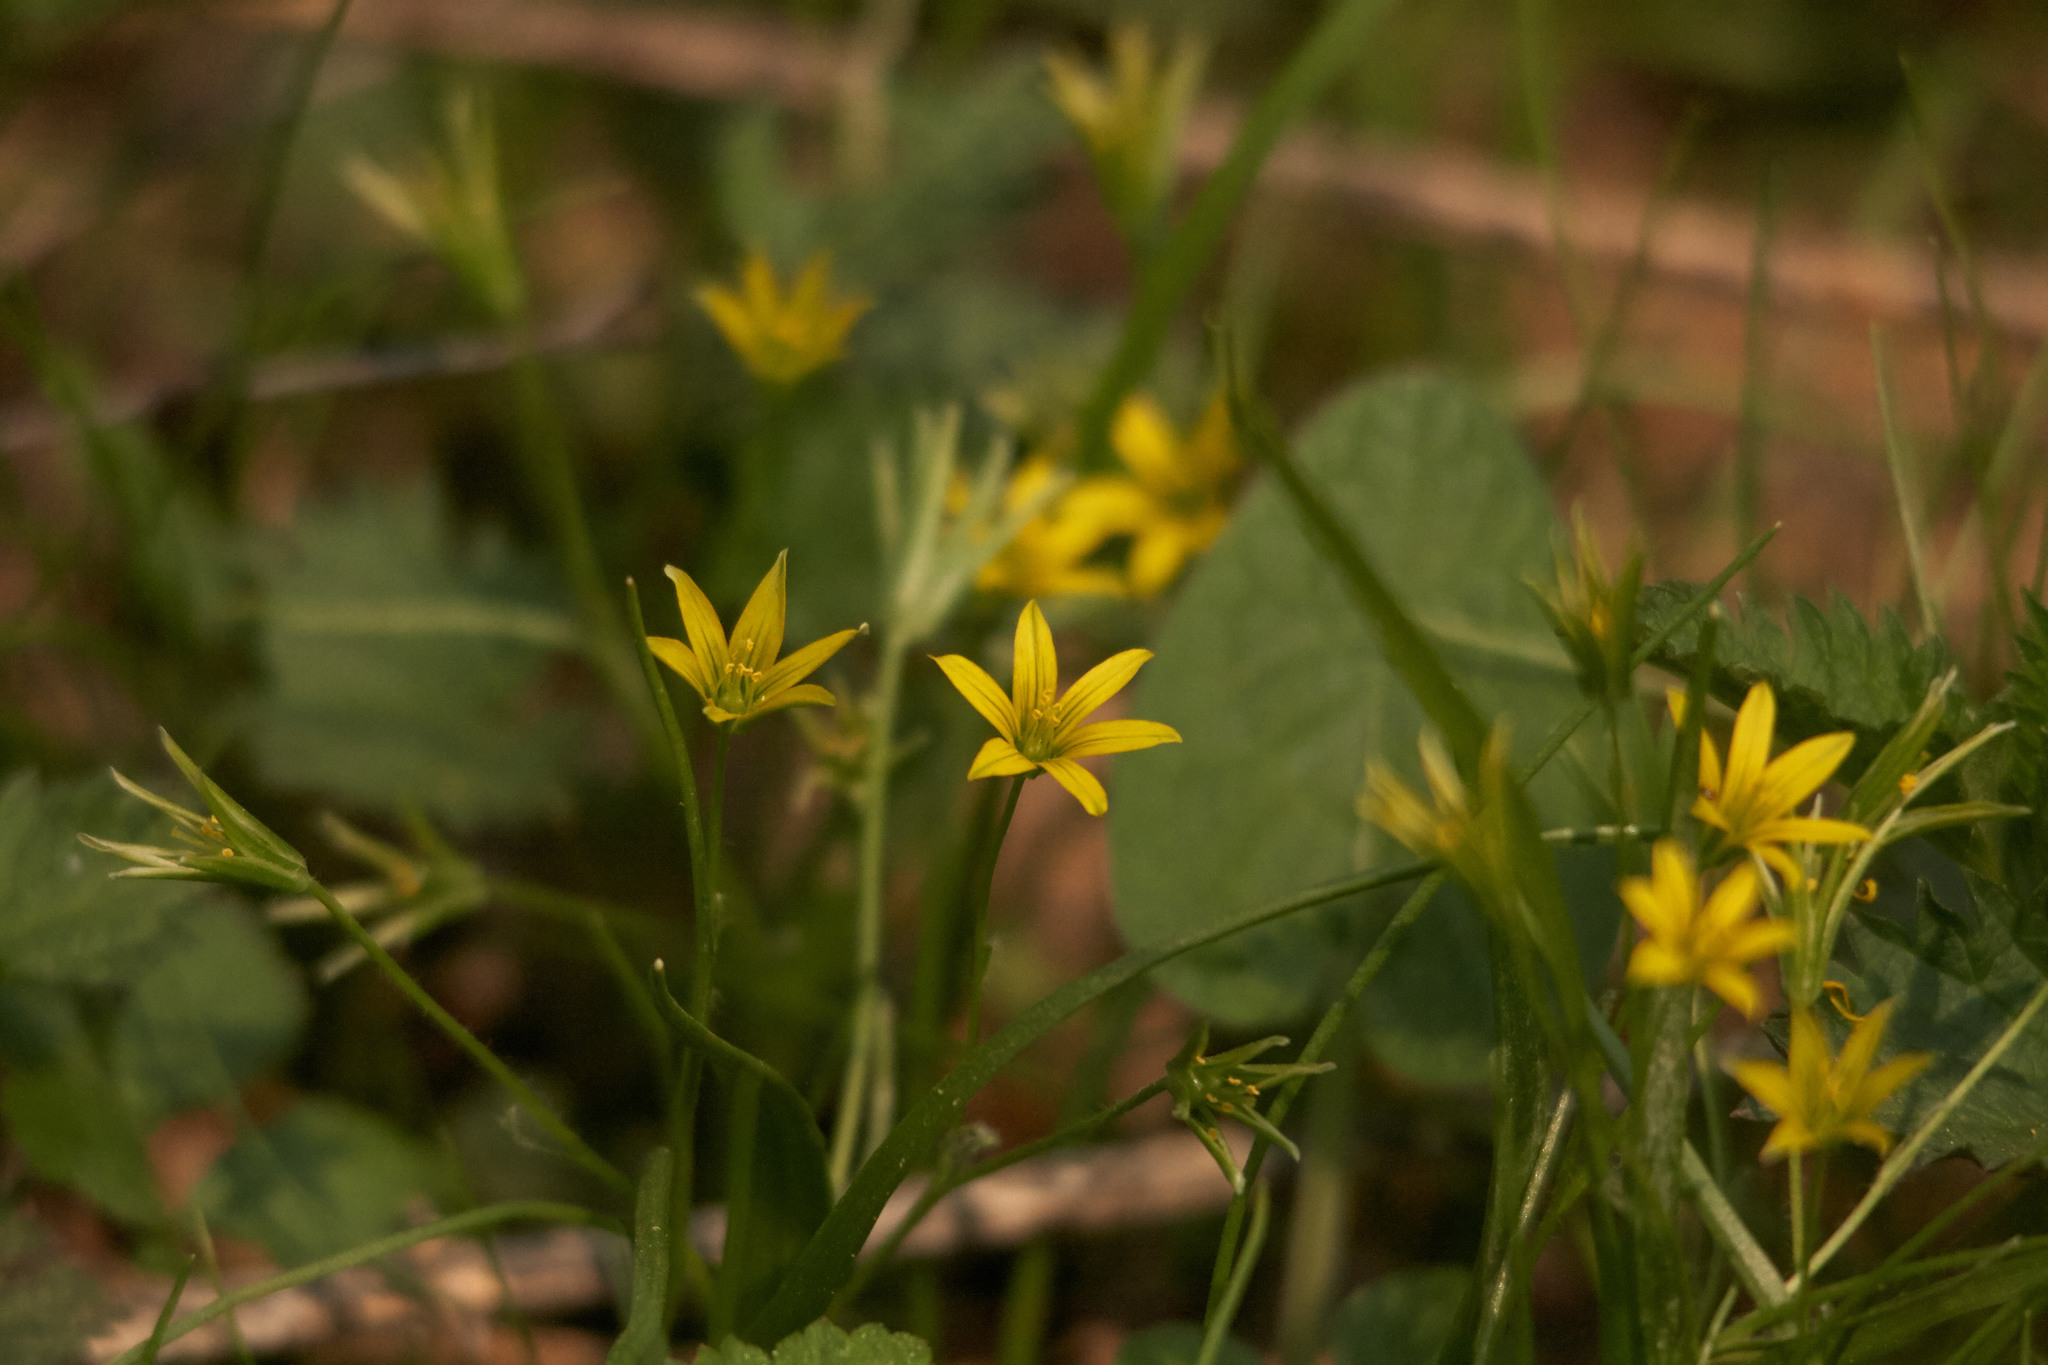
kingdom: Plantae
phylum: Tracheophyta
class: Liliopsida
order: Liliales
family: Liliaceae
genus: Gagea
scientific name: Gagea minima
